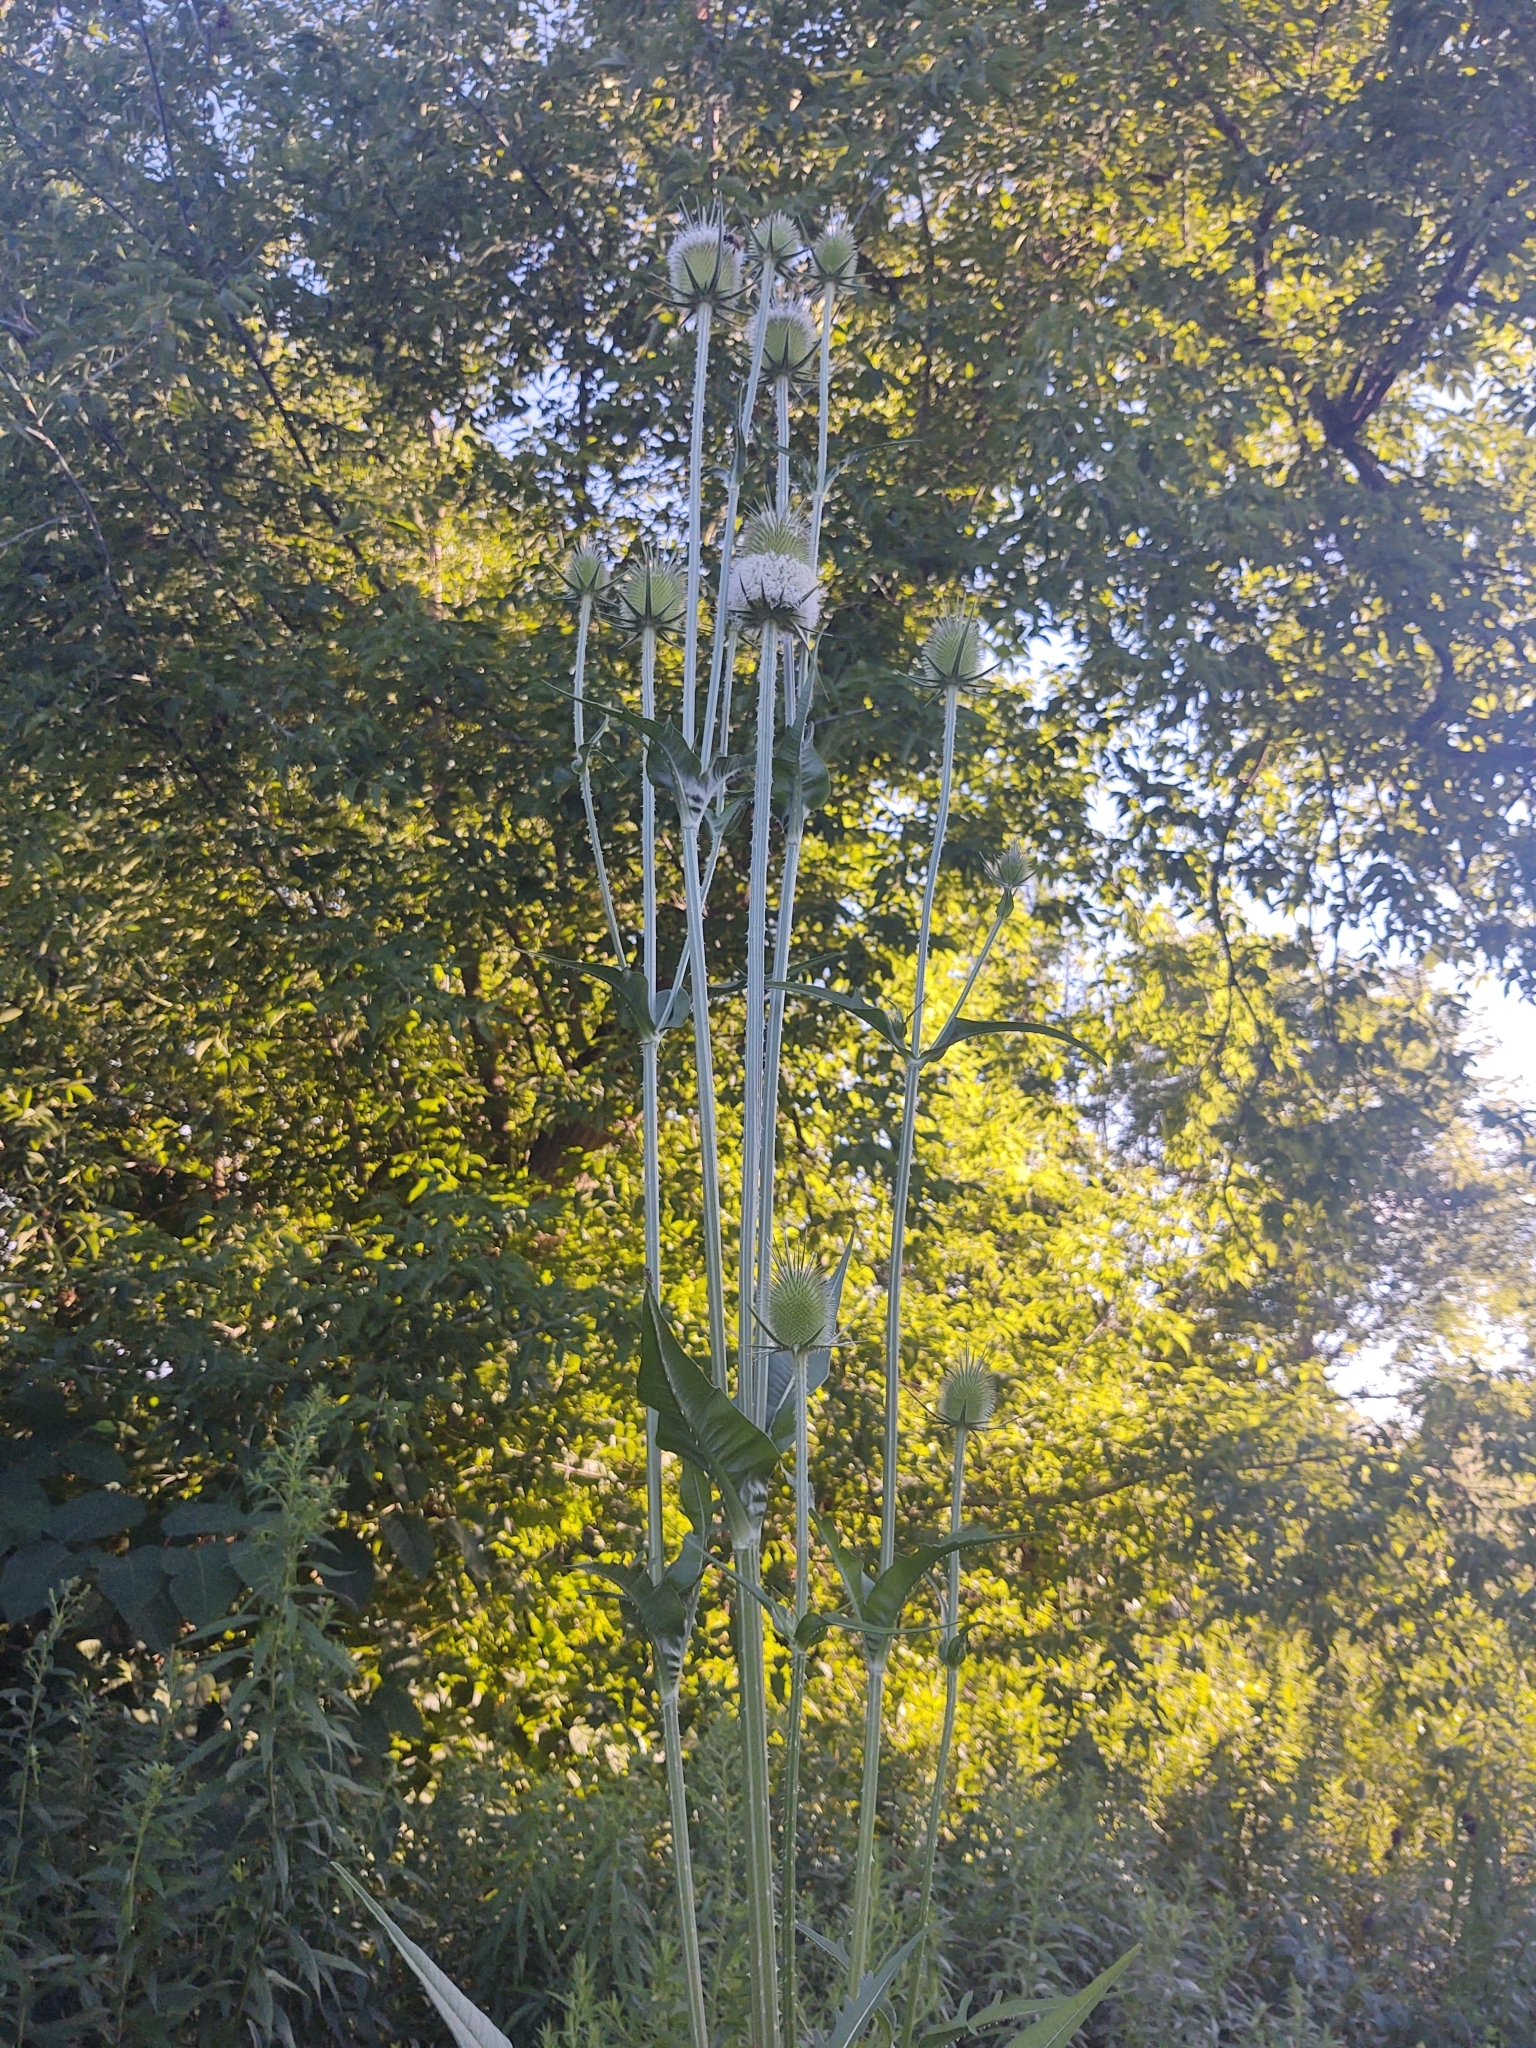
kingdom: Plantae
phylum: Tracheophyta
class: Magnoliopsida
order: Dipsacales
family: Caprifoliaceae
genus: Dipsacus
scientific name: Dipsacus laciniatus
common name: Cut-leaved teasel
